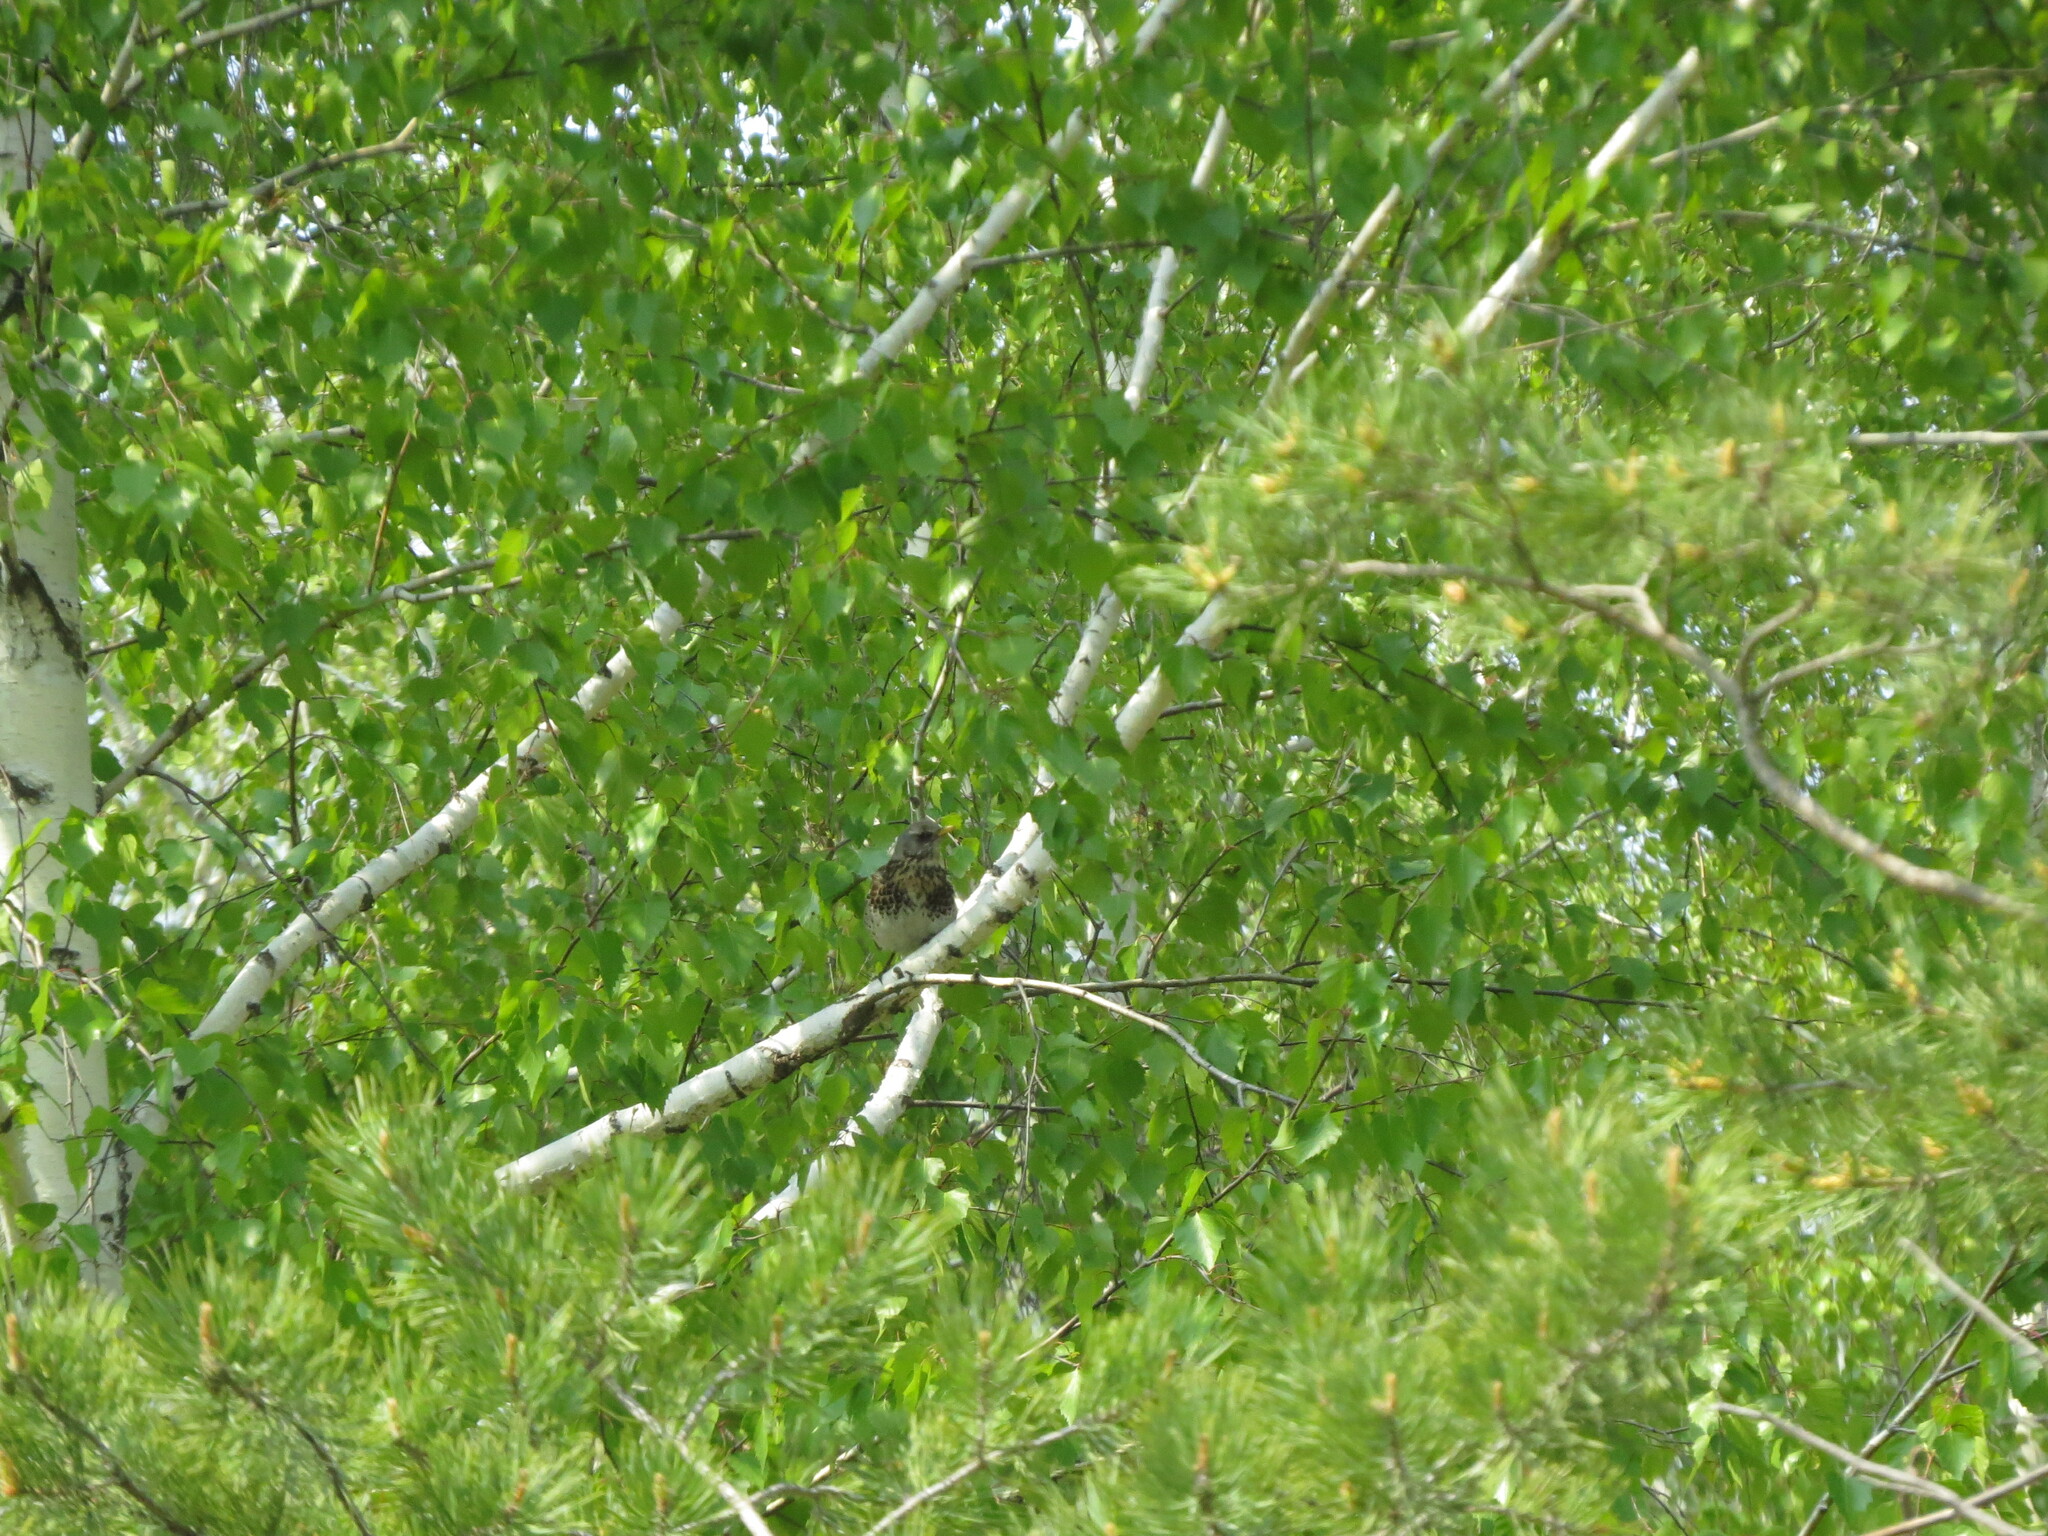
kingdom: Animalia
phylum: Chordata
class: Aves
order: Passeriformes
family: Turdidae
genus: Turdus
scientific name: Turdus pilaris
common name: Fieldfare
